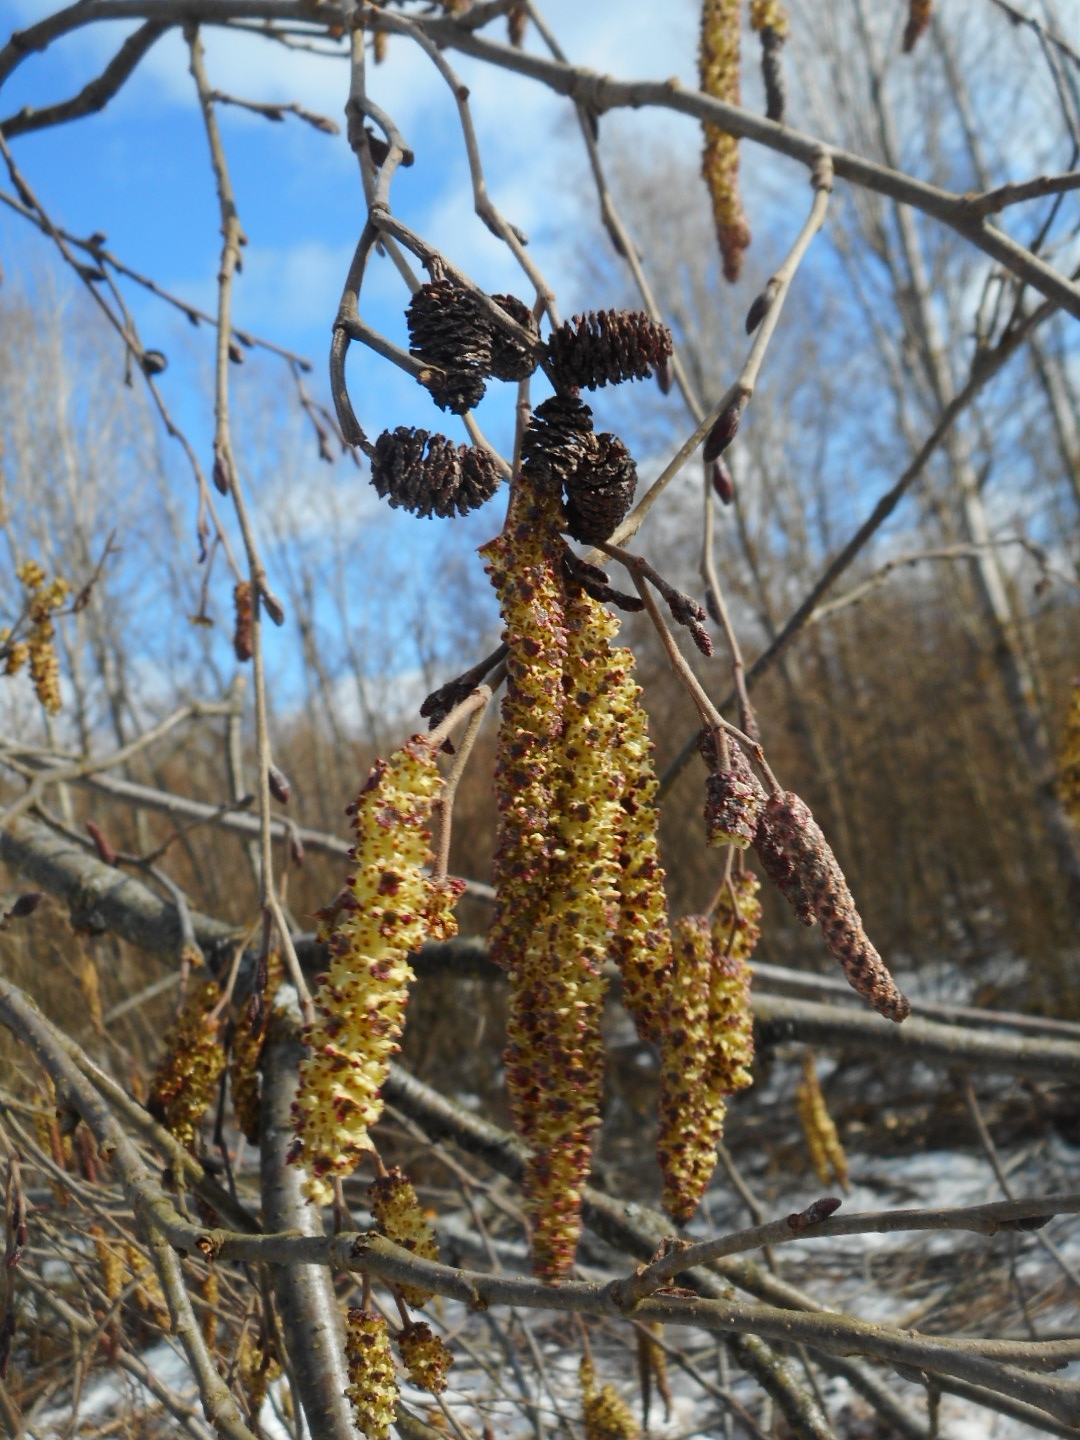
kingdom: Plantae
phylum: Tracheophyta
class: Magnoliopsida
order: Fagales
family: Betulaceae
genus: Alnus
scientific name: Alnus incana
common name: Grey alder
